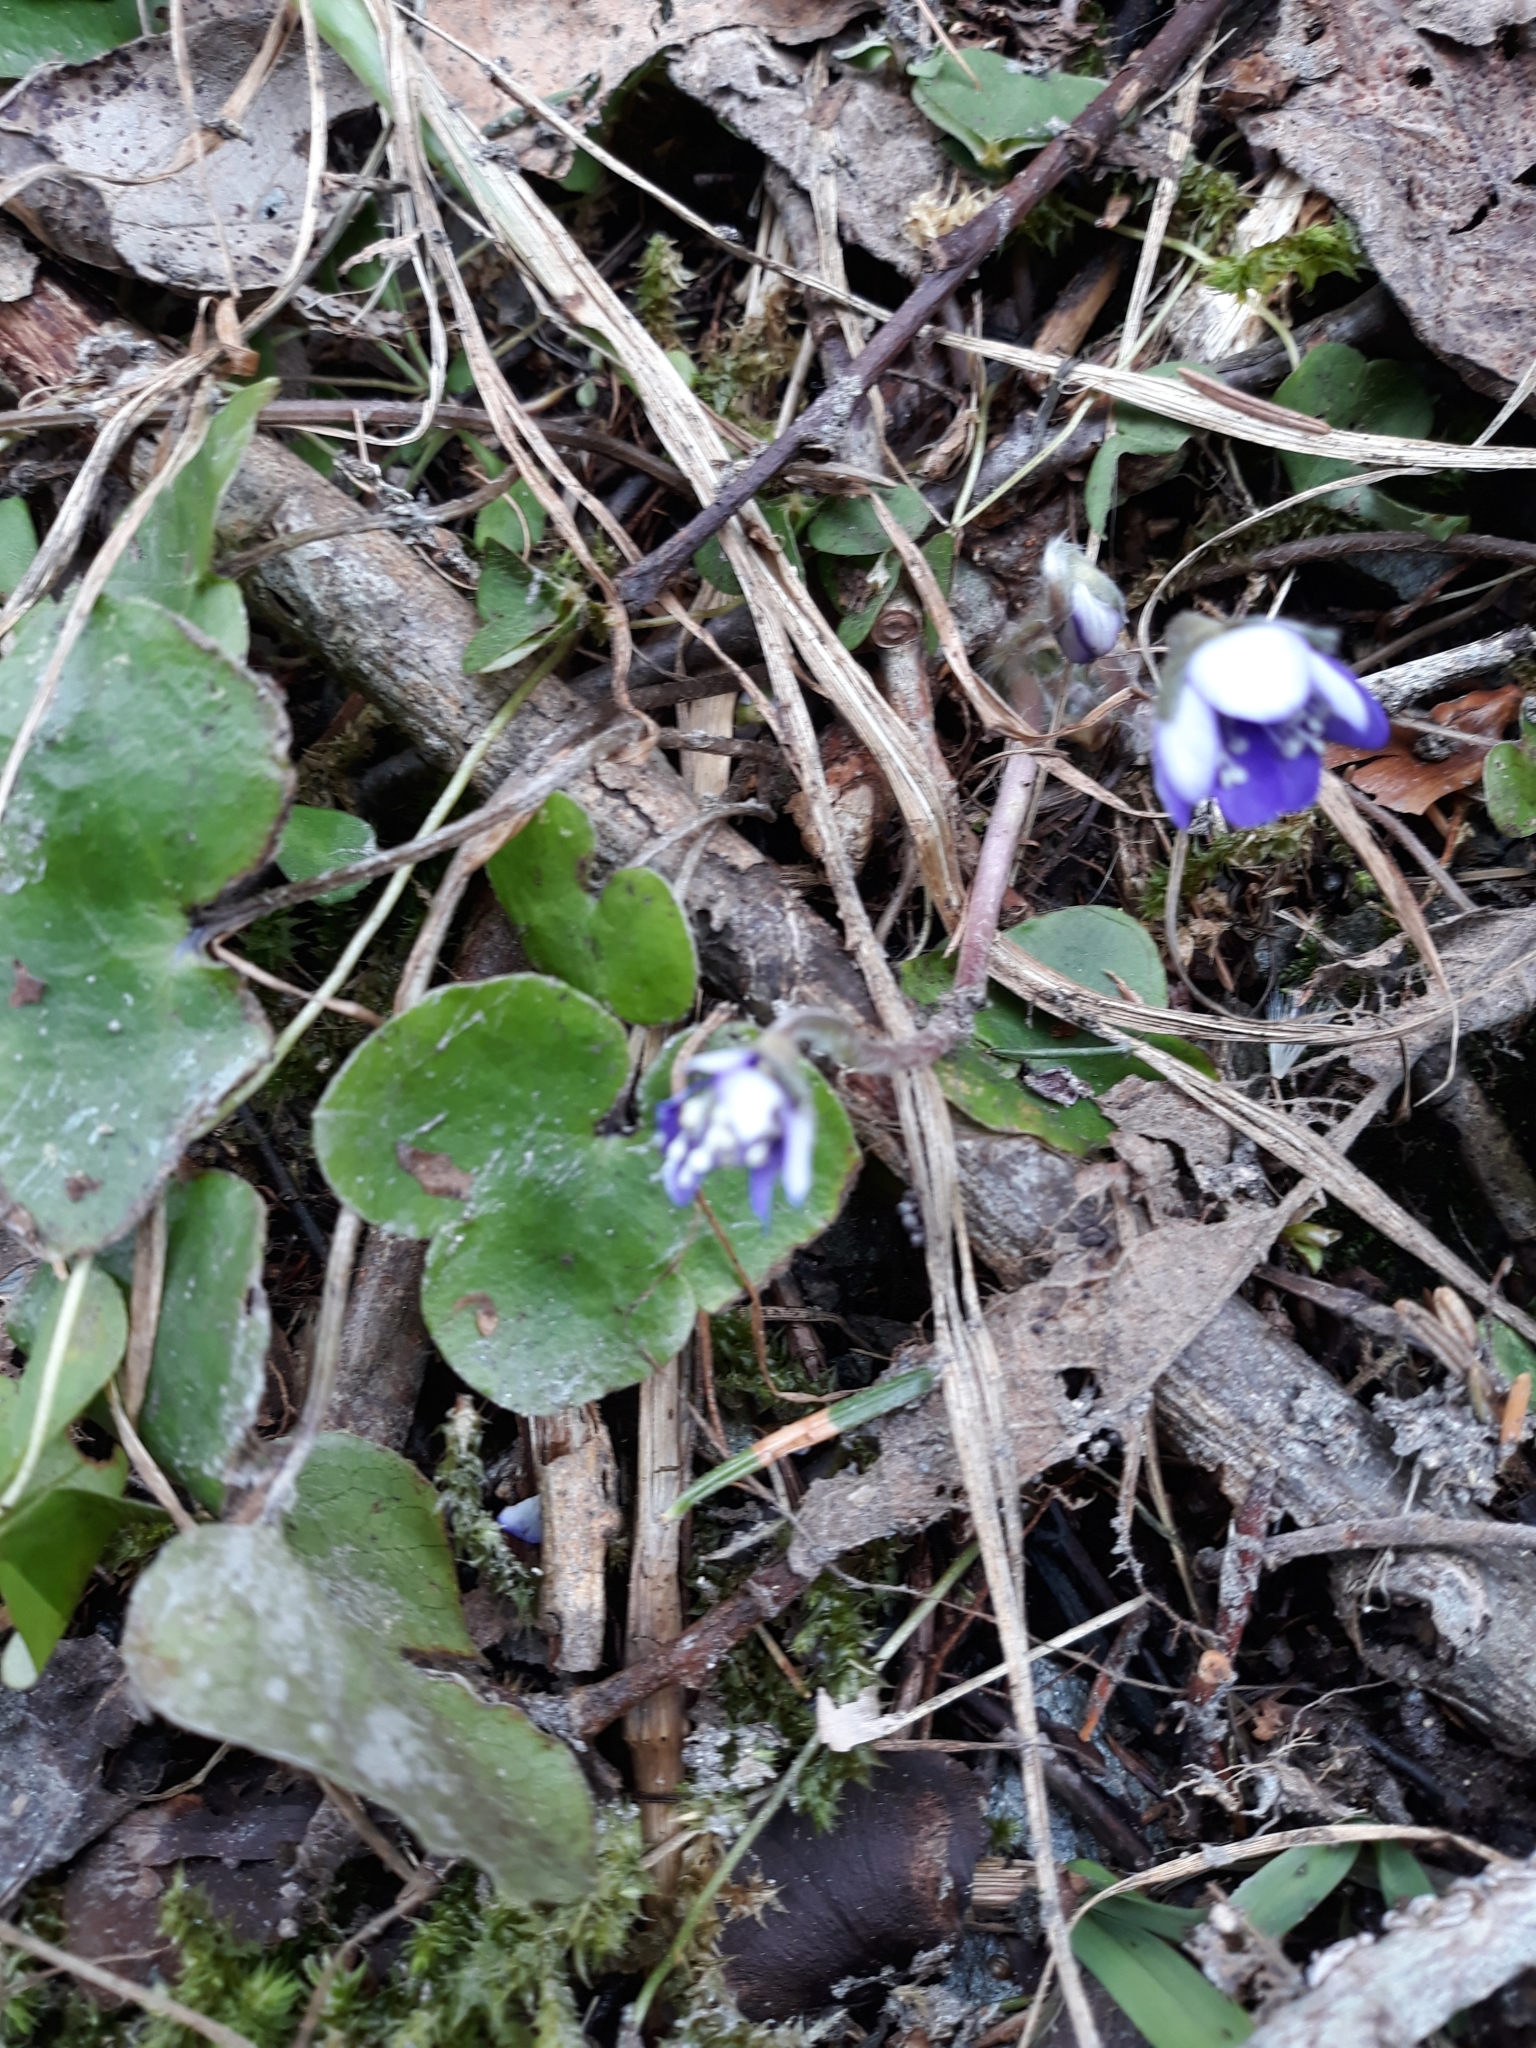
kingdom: Plantae
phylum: Tracheophyta
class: Magnoliopsida
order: Ranunculales
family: Ranunculaceae
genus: Hepatica
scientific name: Hepatica nobilis
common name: Liverleaf
